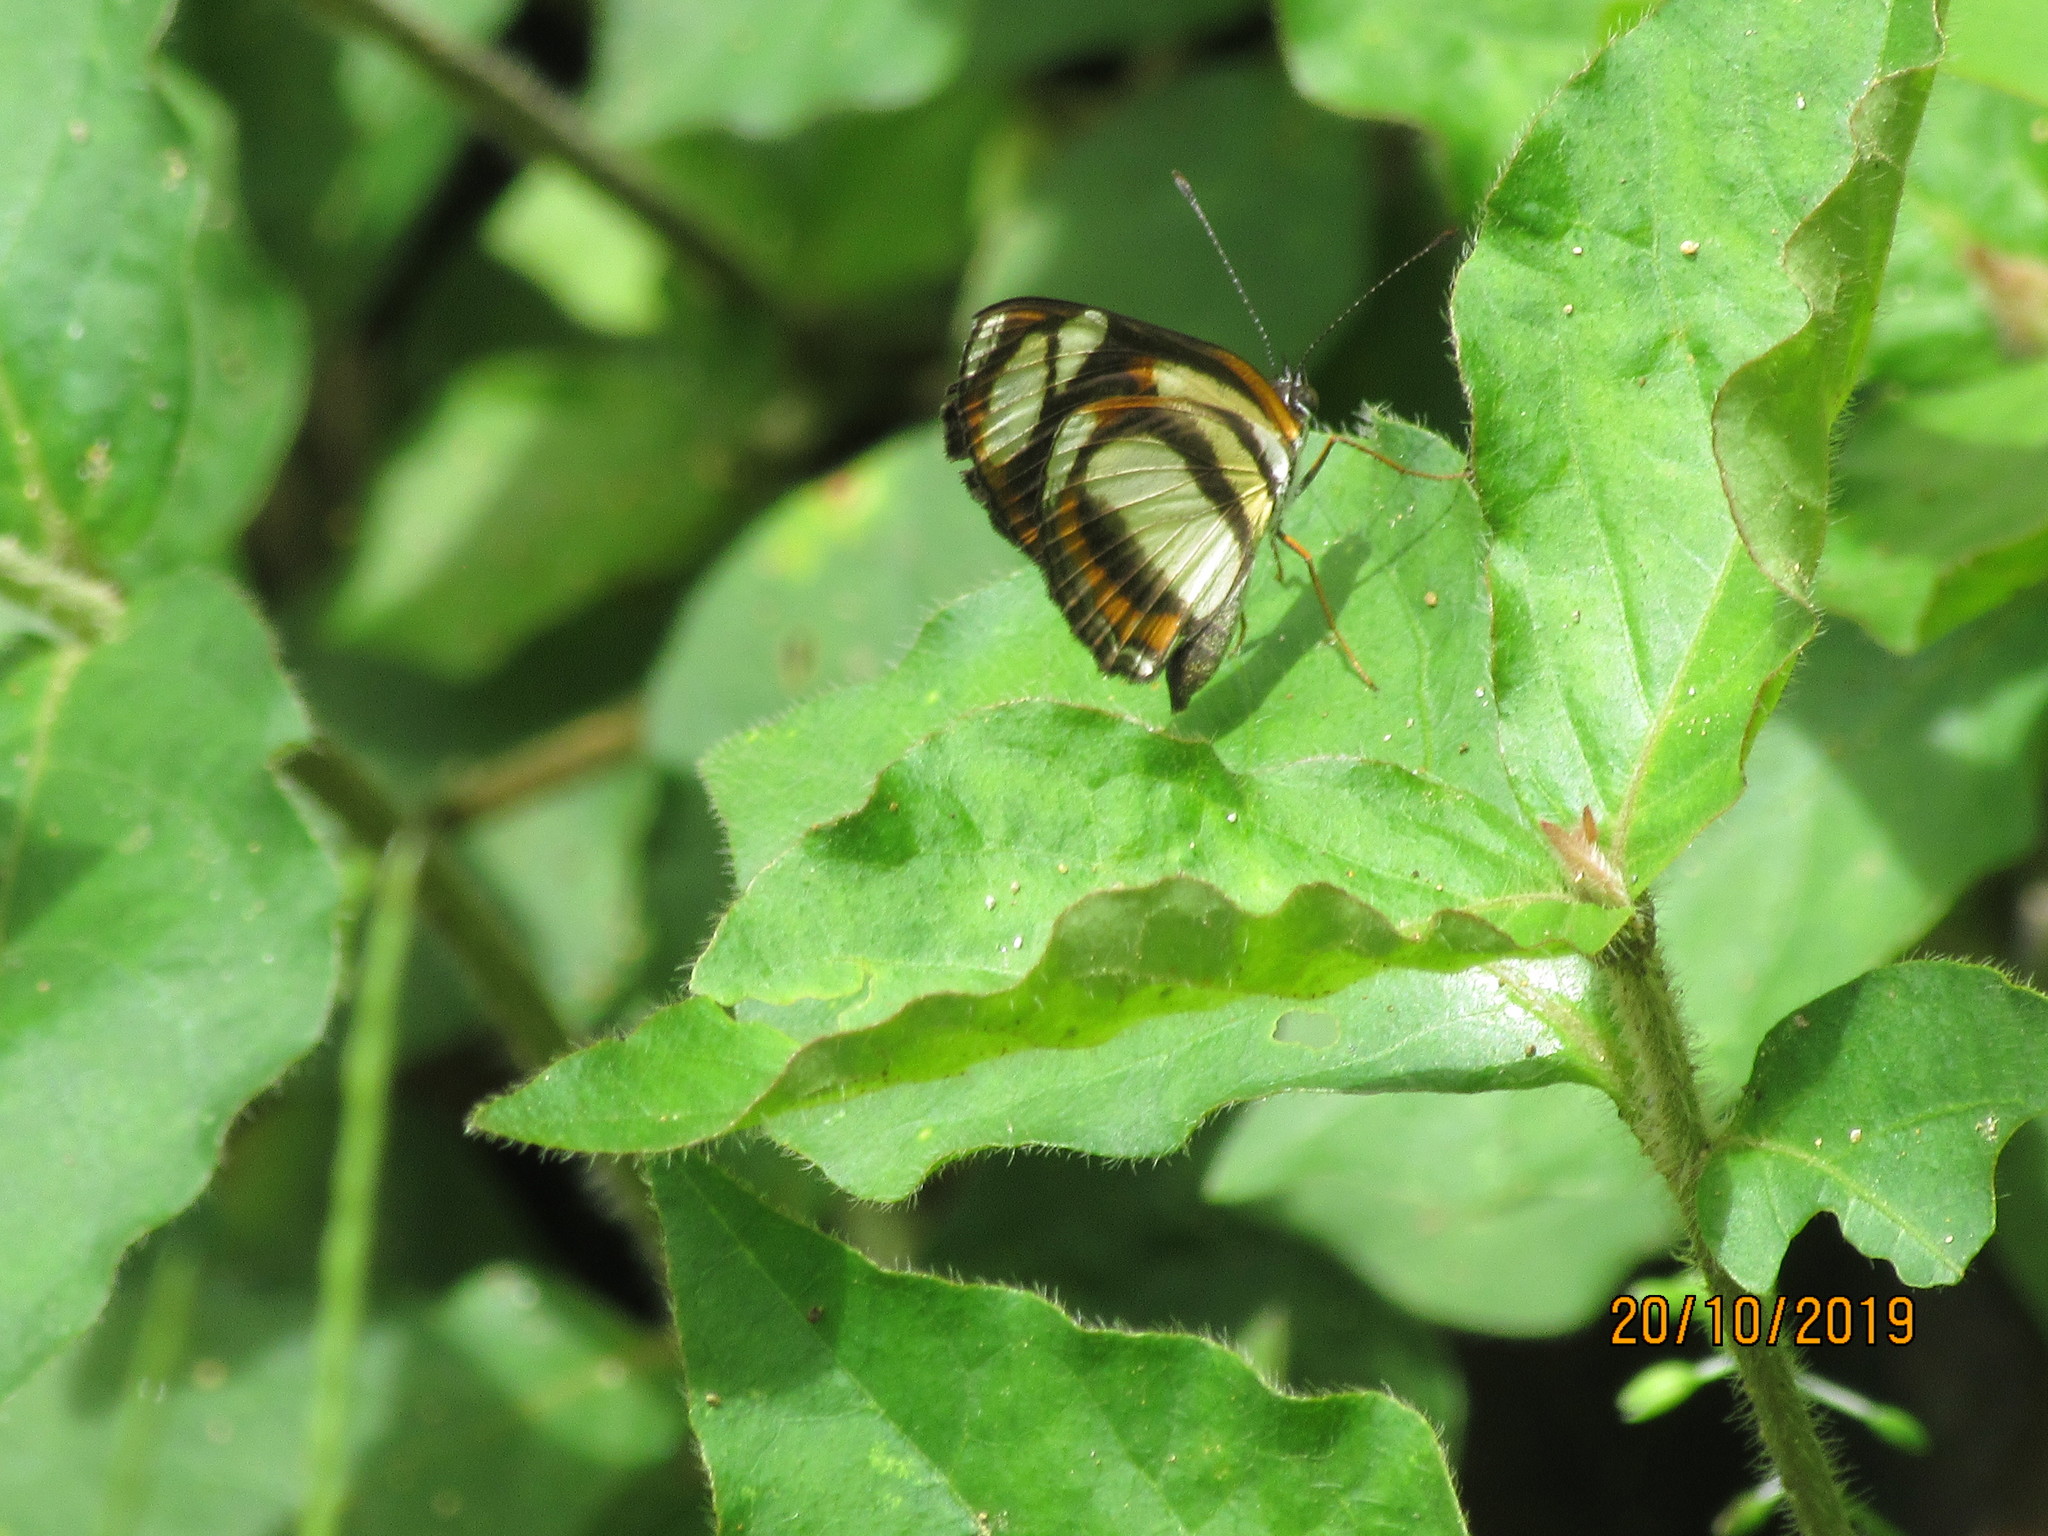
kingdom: Animalia
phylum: Arthropoda
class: Insecta
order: Lepidoptera
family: Nymphalidae
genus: Eresia
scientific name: Eresia clio
